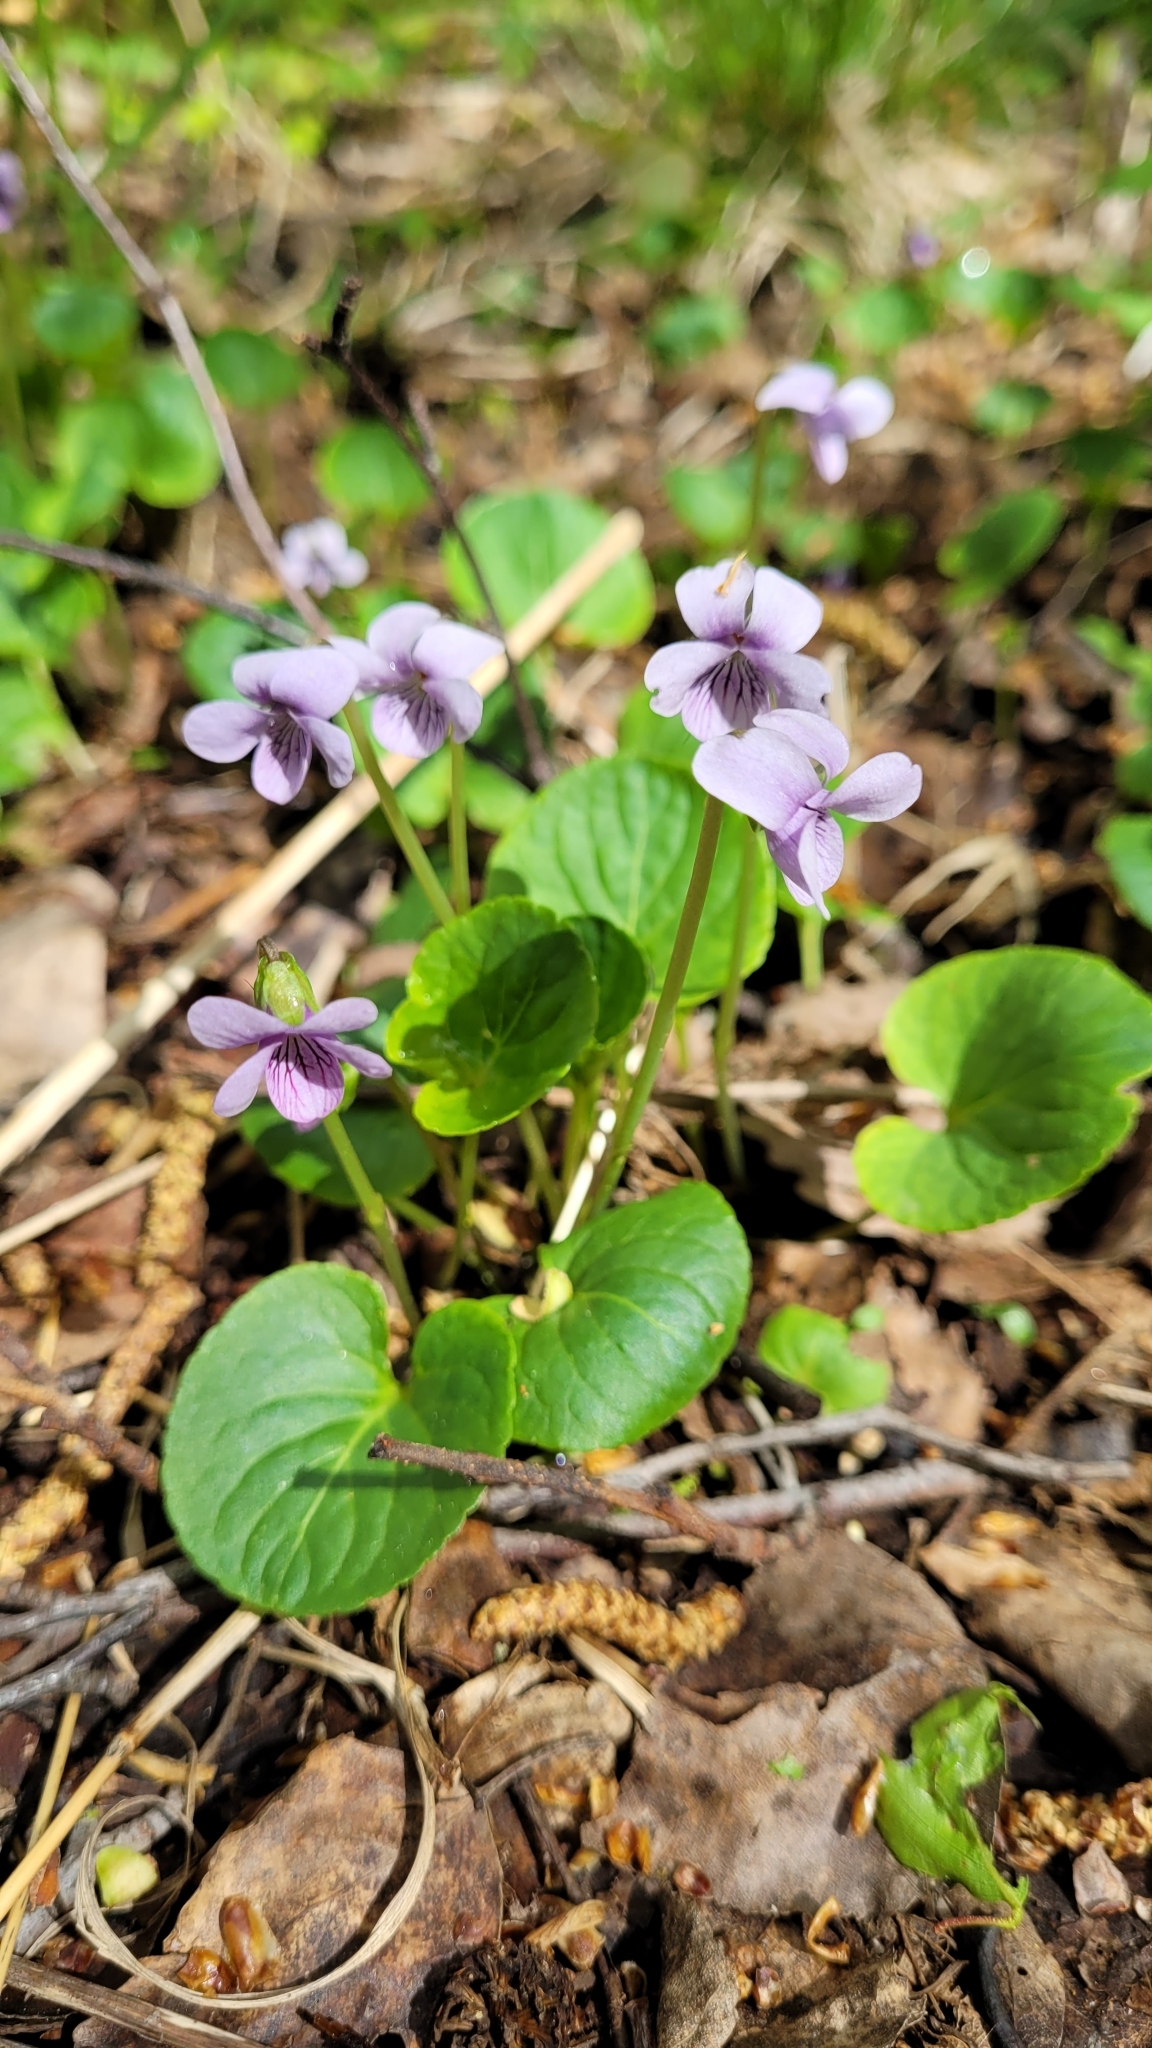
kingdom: Plantae
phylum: Tracheophyta
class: Magnoliopsida
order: Malpighiales
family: Violaceae
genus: Viola
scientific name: Viola palustris
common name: Marsh violet
